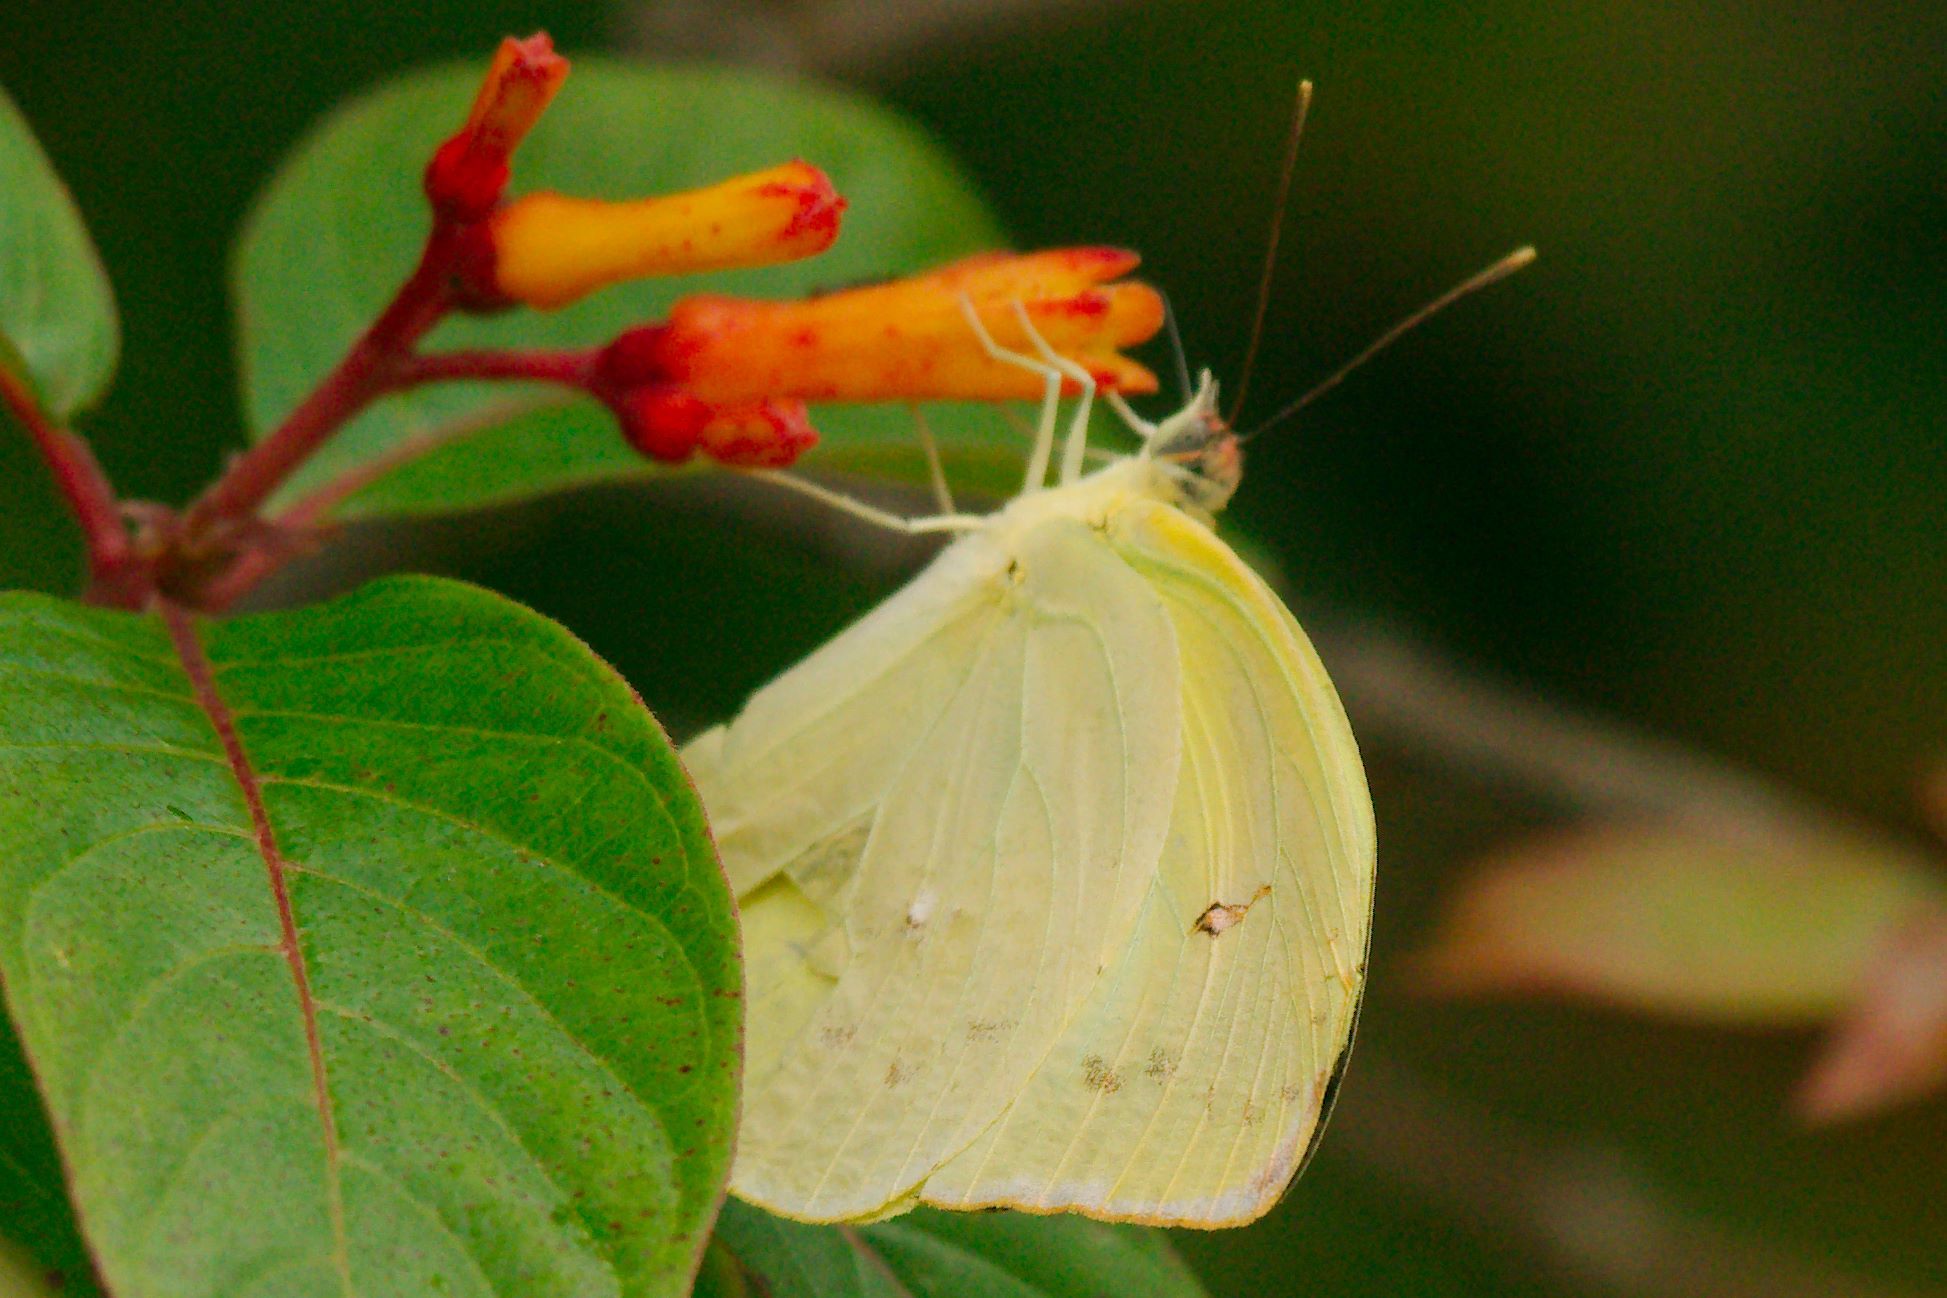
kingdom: Animalia
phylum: Arthropoda
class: Insecta
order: Lepidoptera
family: Pieridae
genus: Aphrissa
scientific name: Aphrissa statira
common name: Statira sulphur
